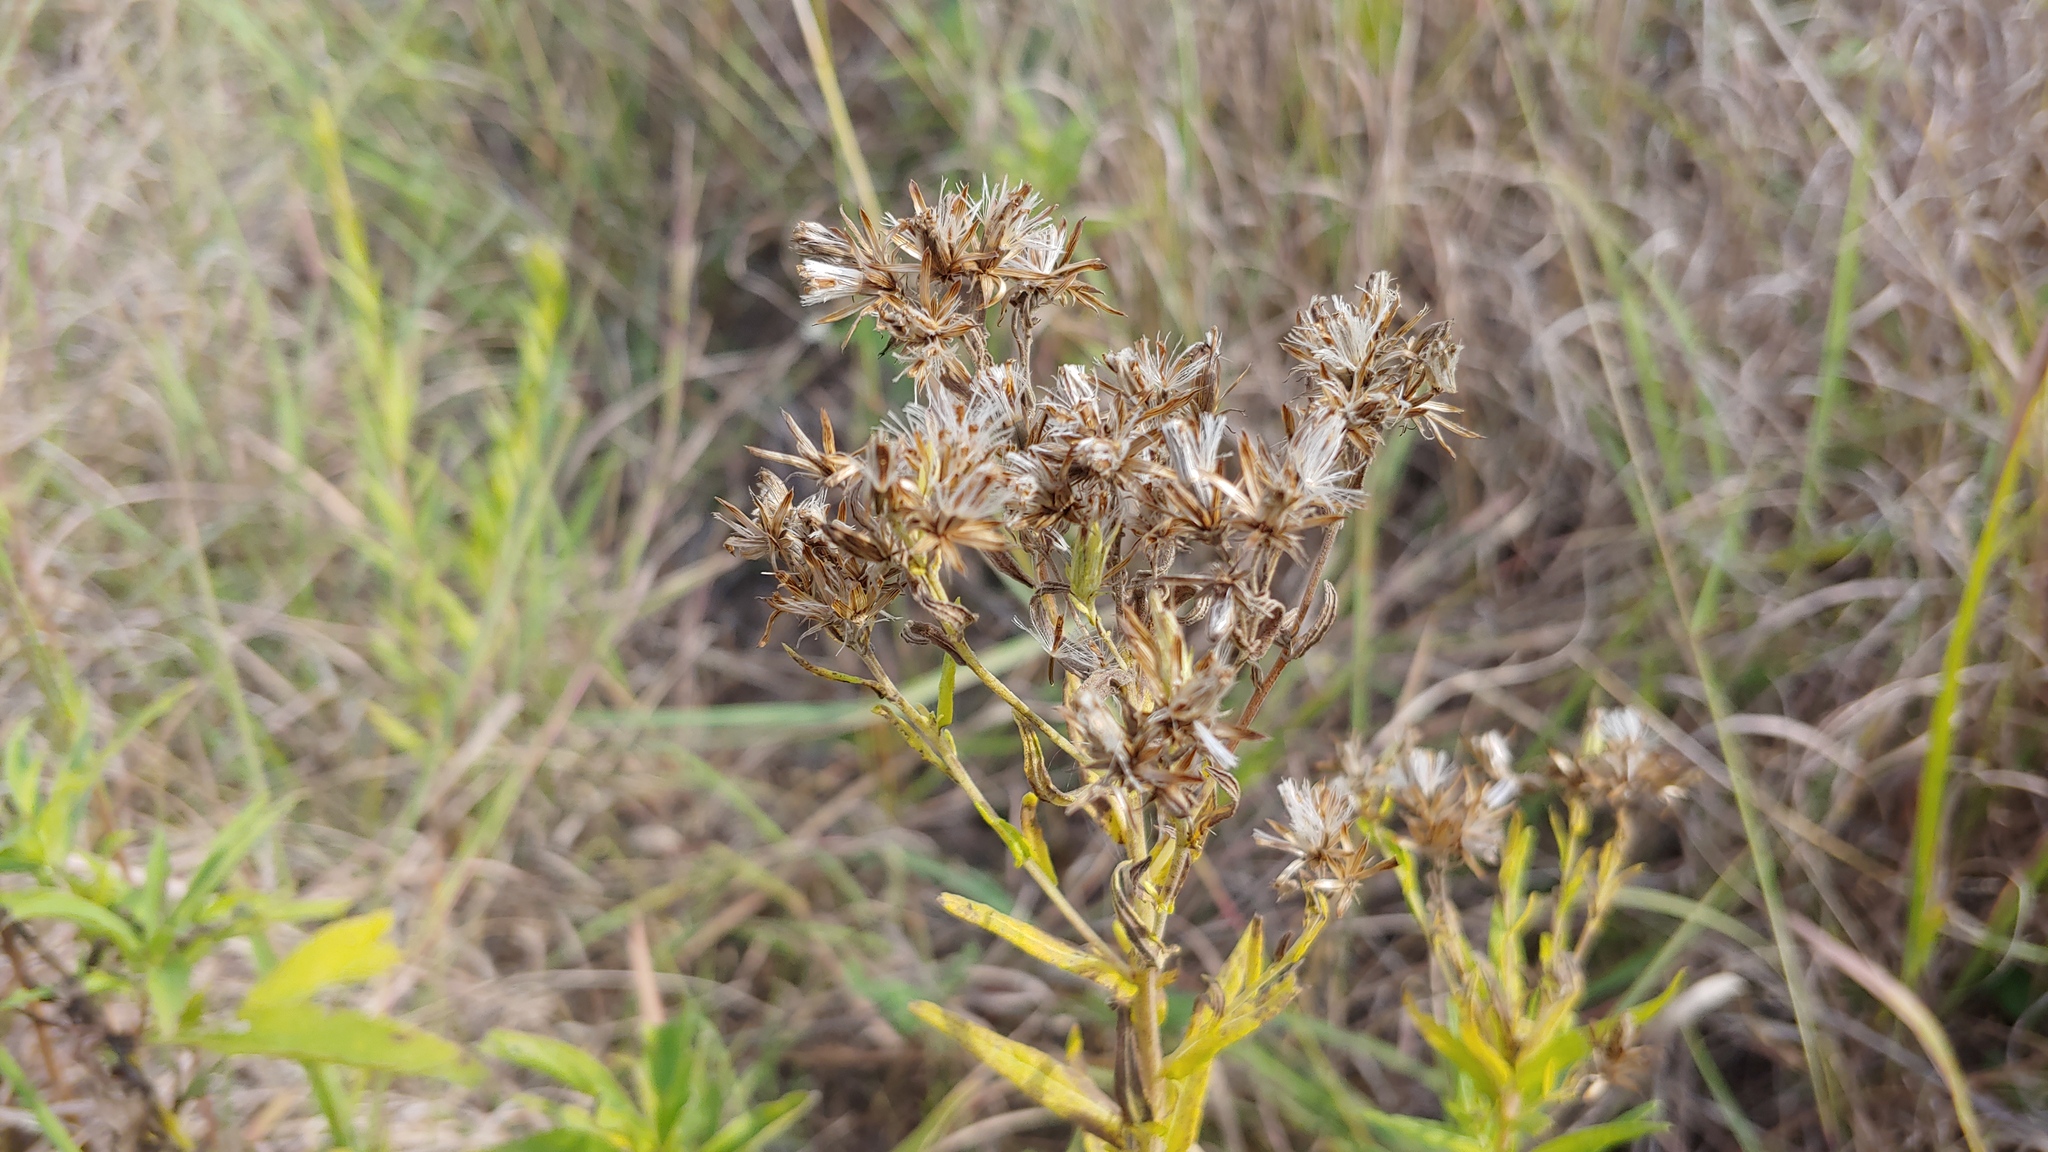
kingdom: Plantae
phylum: Tracheophyta
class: Magnoliopsida
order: Asterales
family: Asteraceae
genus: Brickellia
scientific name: Brickellia suaveolens
